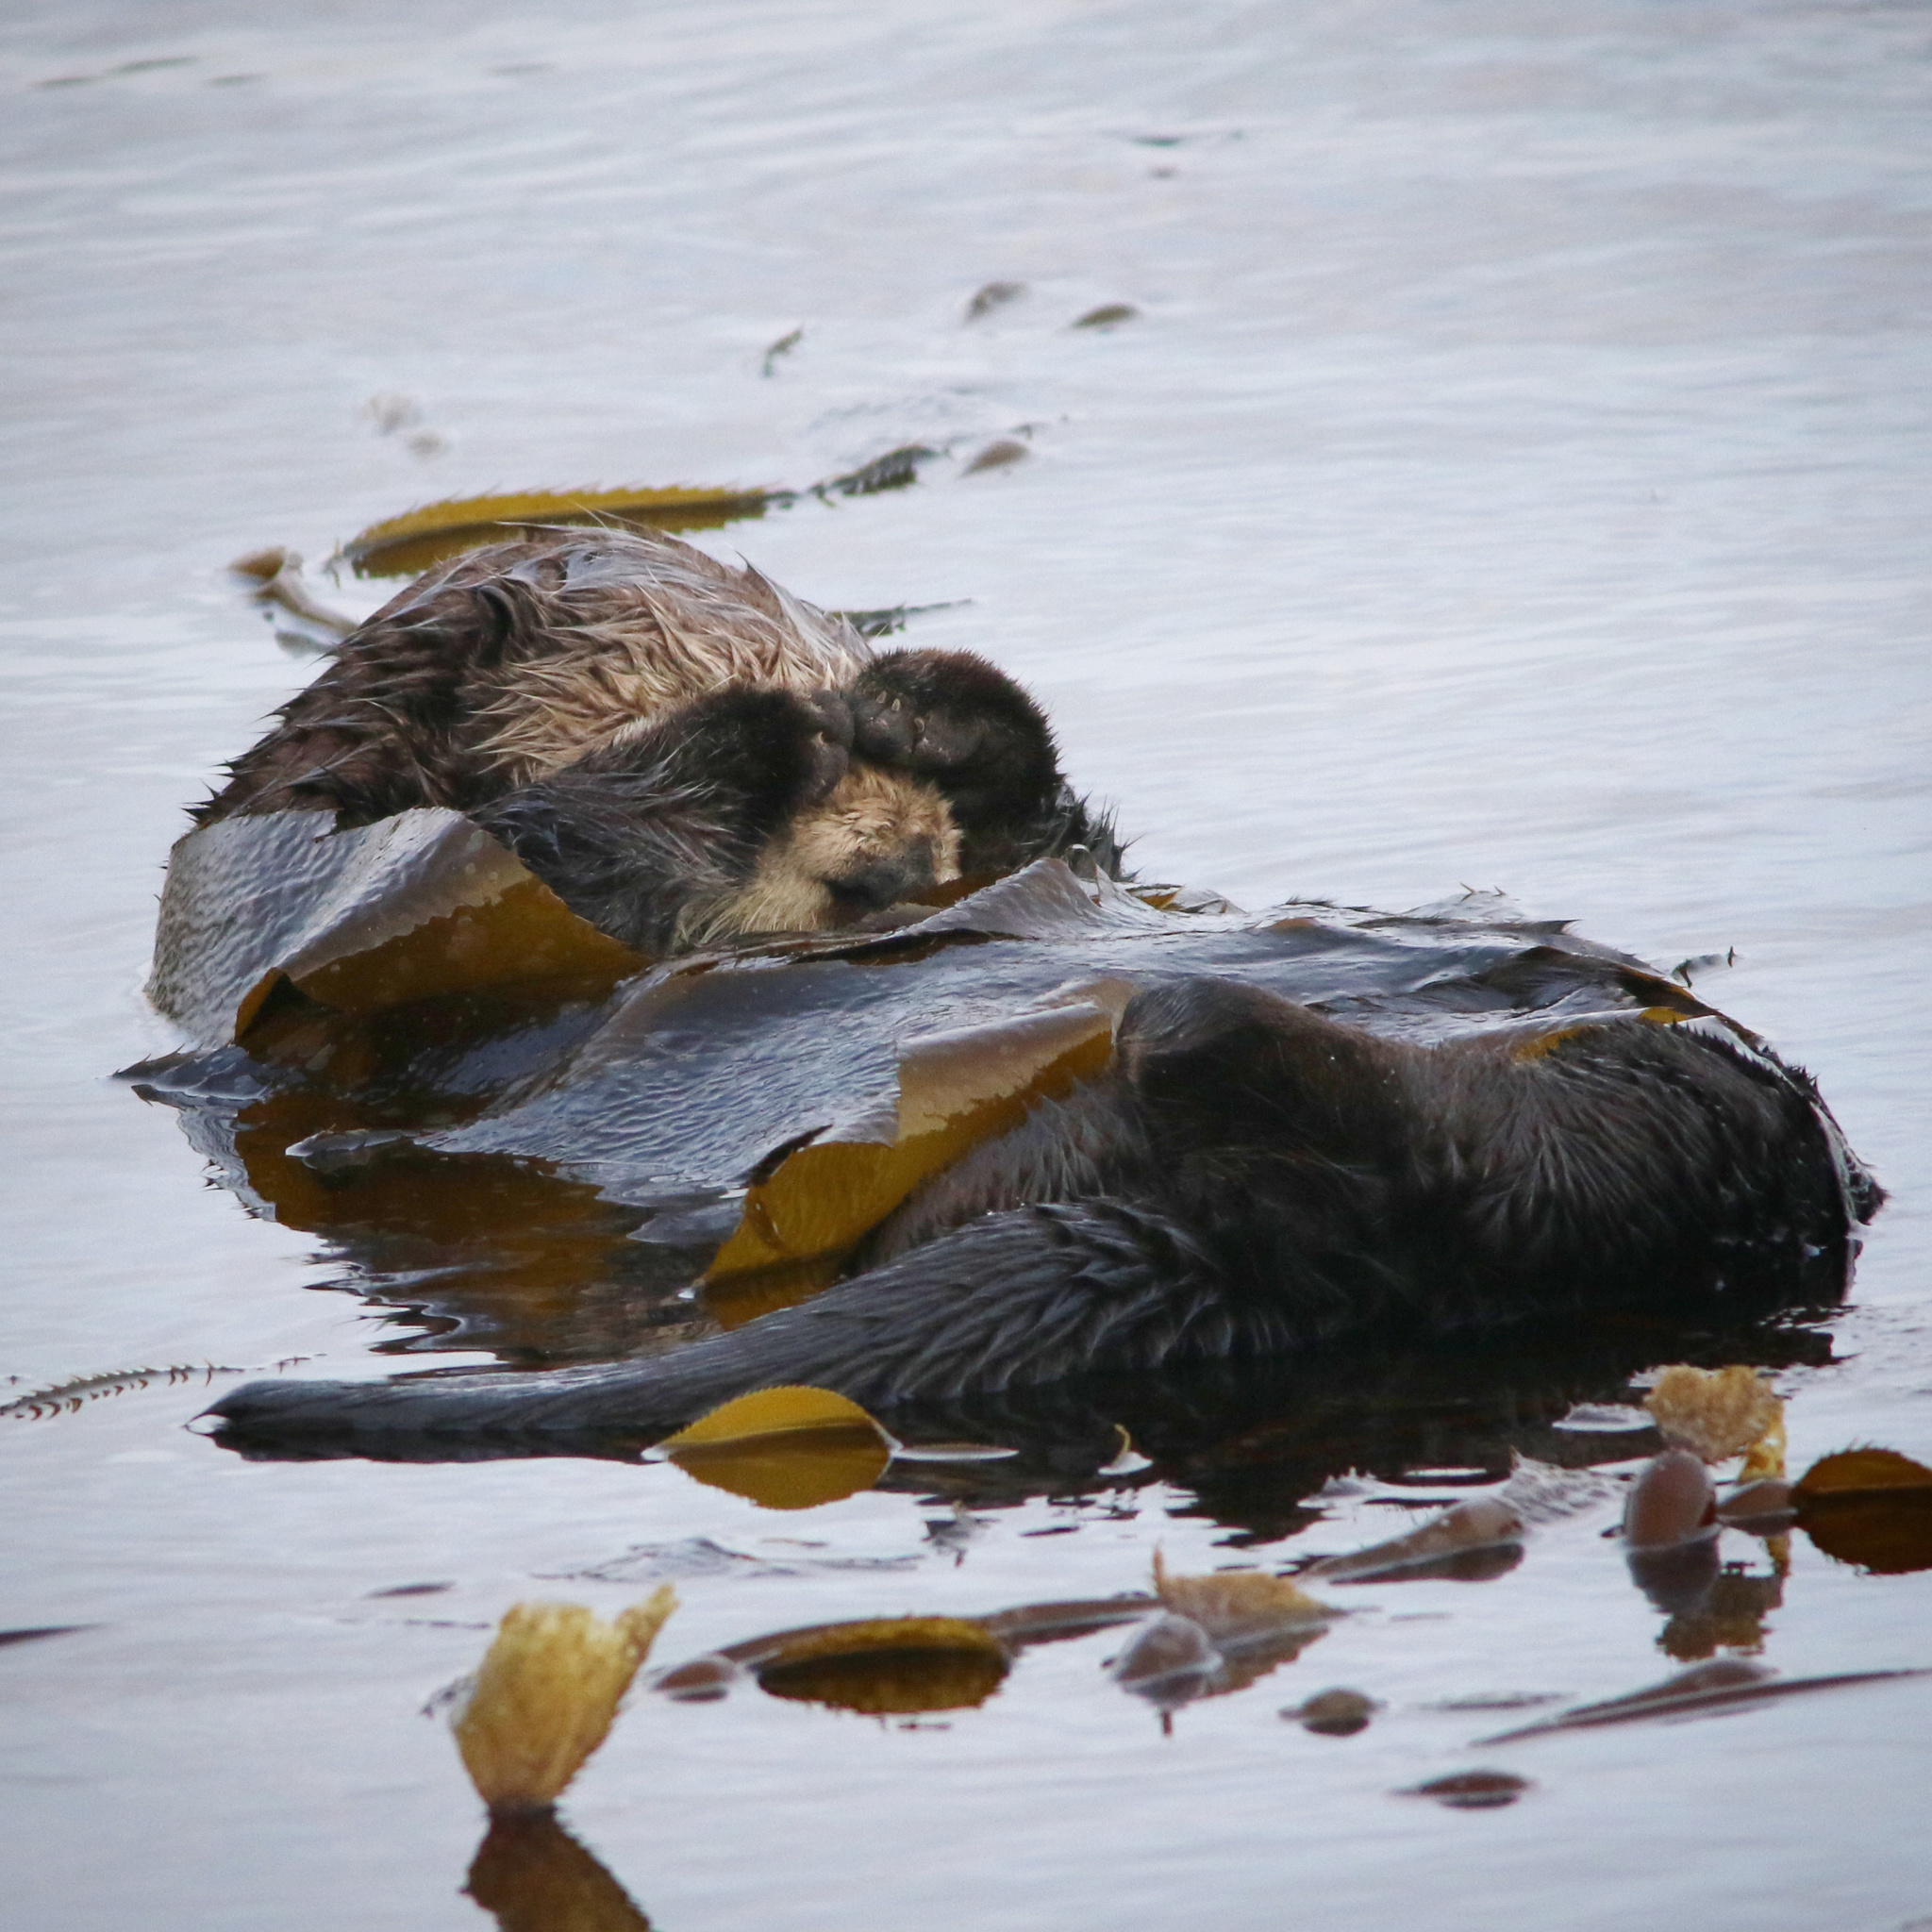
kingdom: Animalia
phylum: Chordata
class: Mammalia
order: Carnivora
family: Mustelidae
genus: Enhydra
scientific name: Enhydra lutris
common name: Sea otter
